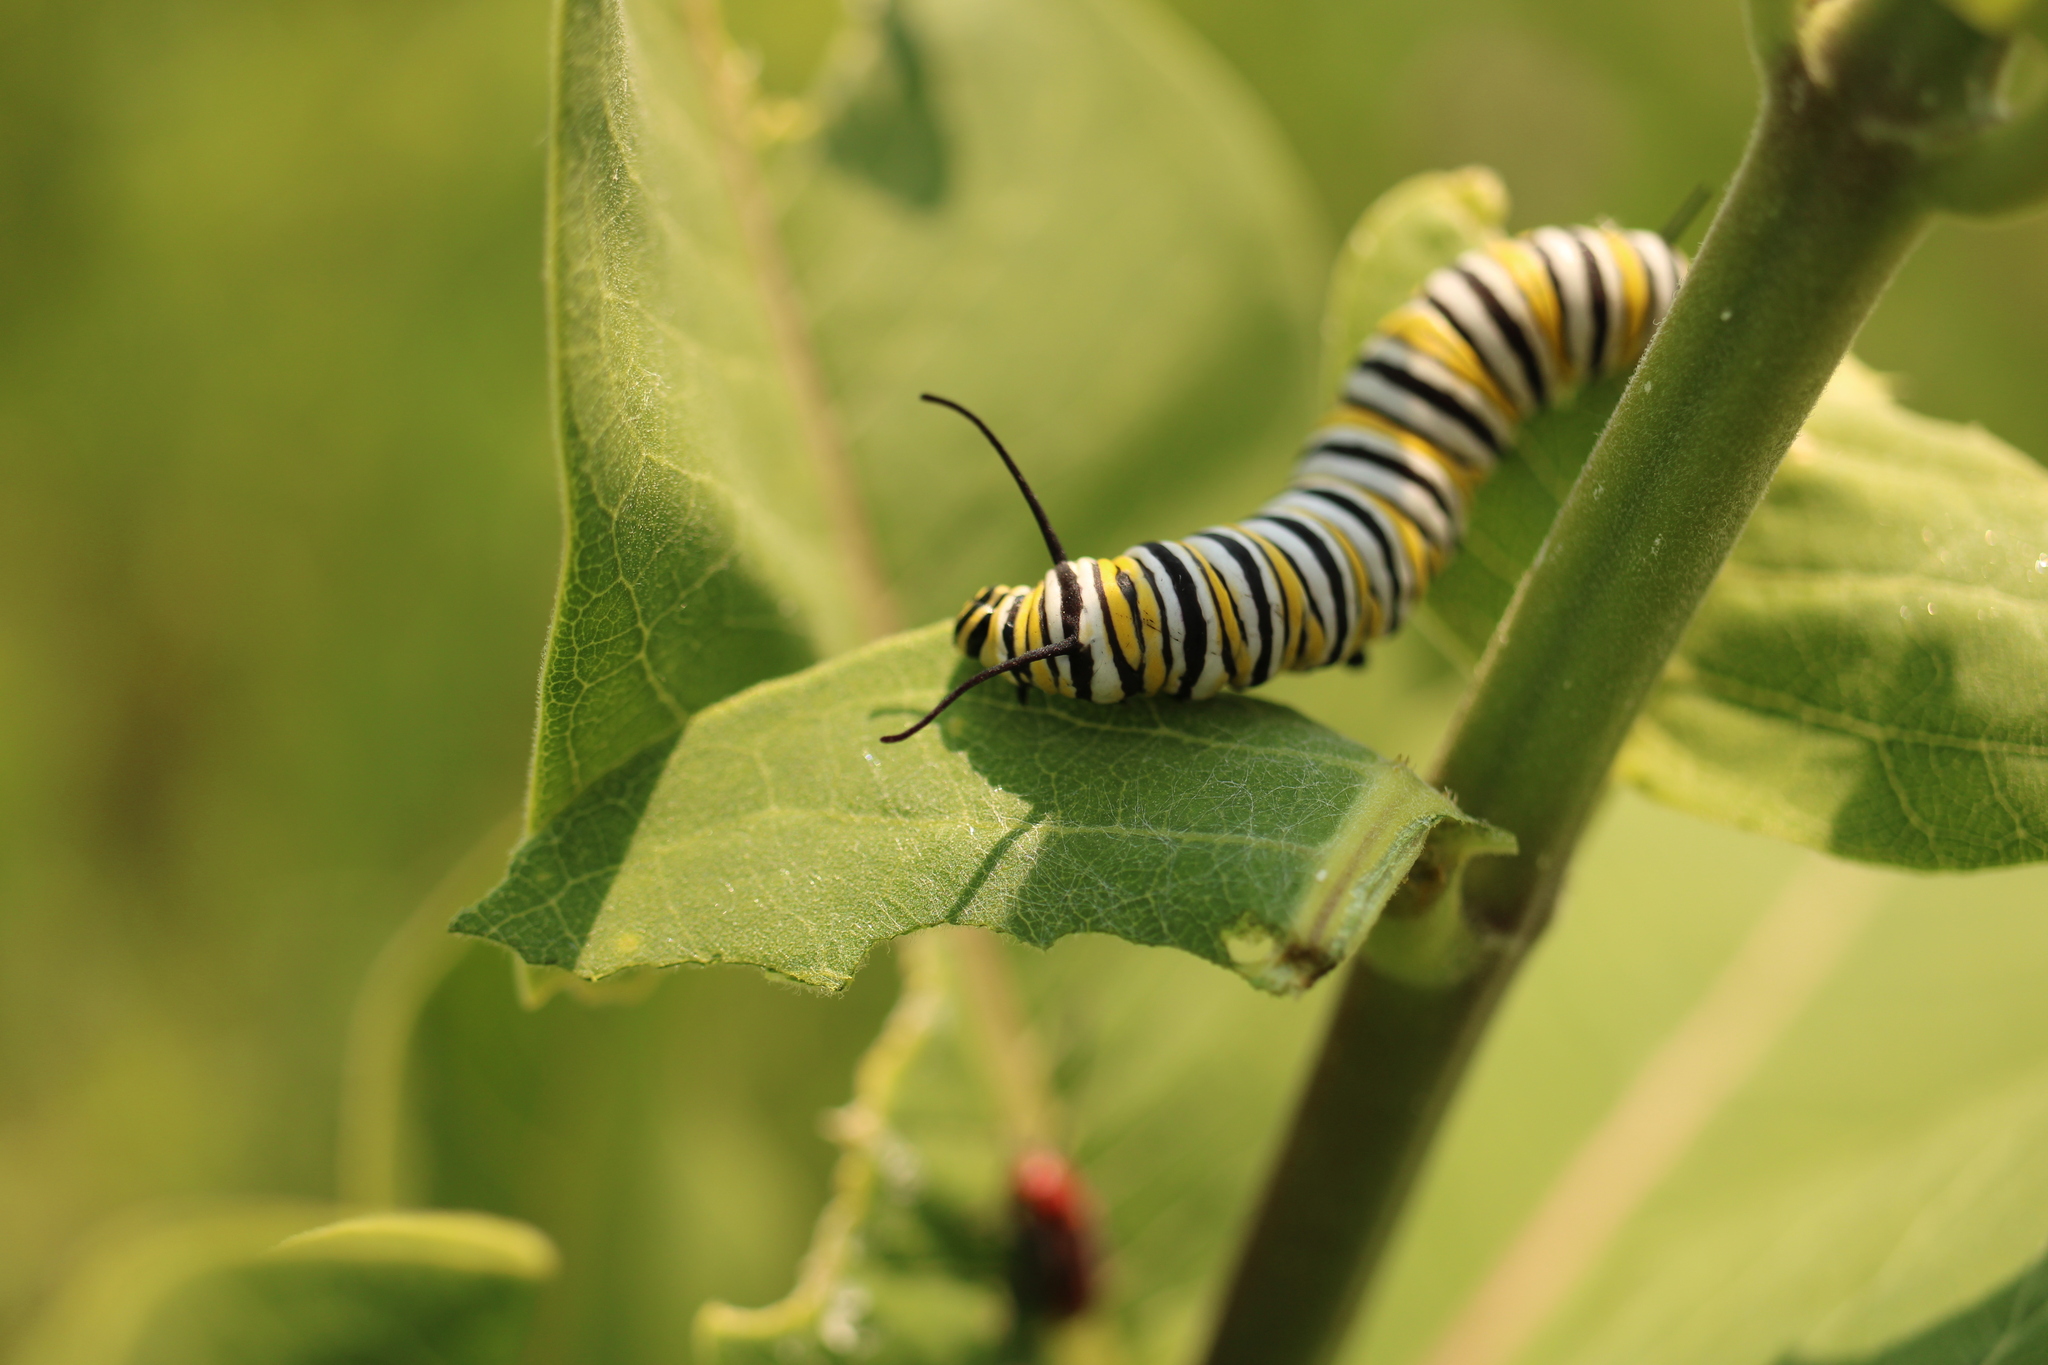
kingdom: Animalia
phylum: Arthropoda
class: Insecta
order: Lepidoptera
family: Nymphalidae
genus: Danaus
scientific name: Danaus plexippus
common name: Monarch
